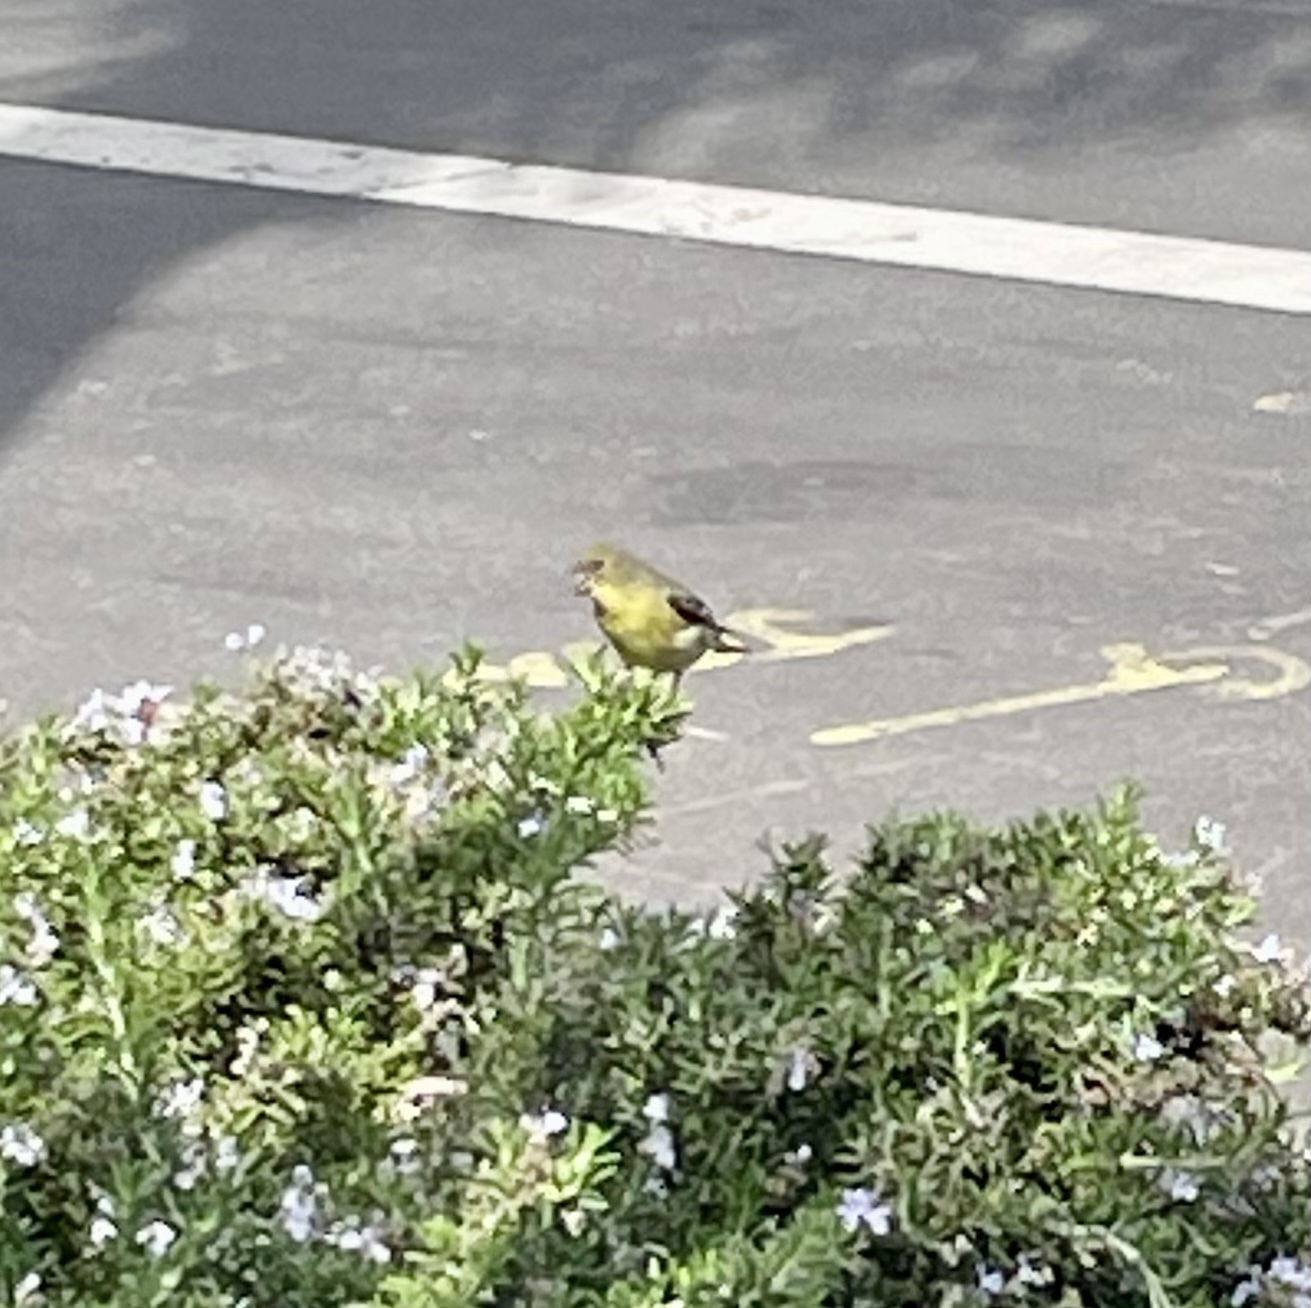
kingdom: Animalia
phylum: Chordata
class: Aves
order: Passeriformes
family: Fringillidae
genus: Spinus
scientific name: Spinus psaltria
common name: Lesser goldfinch
